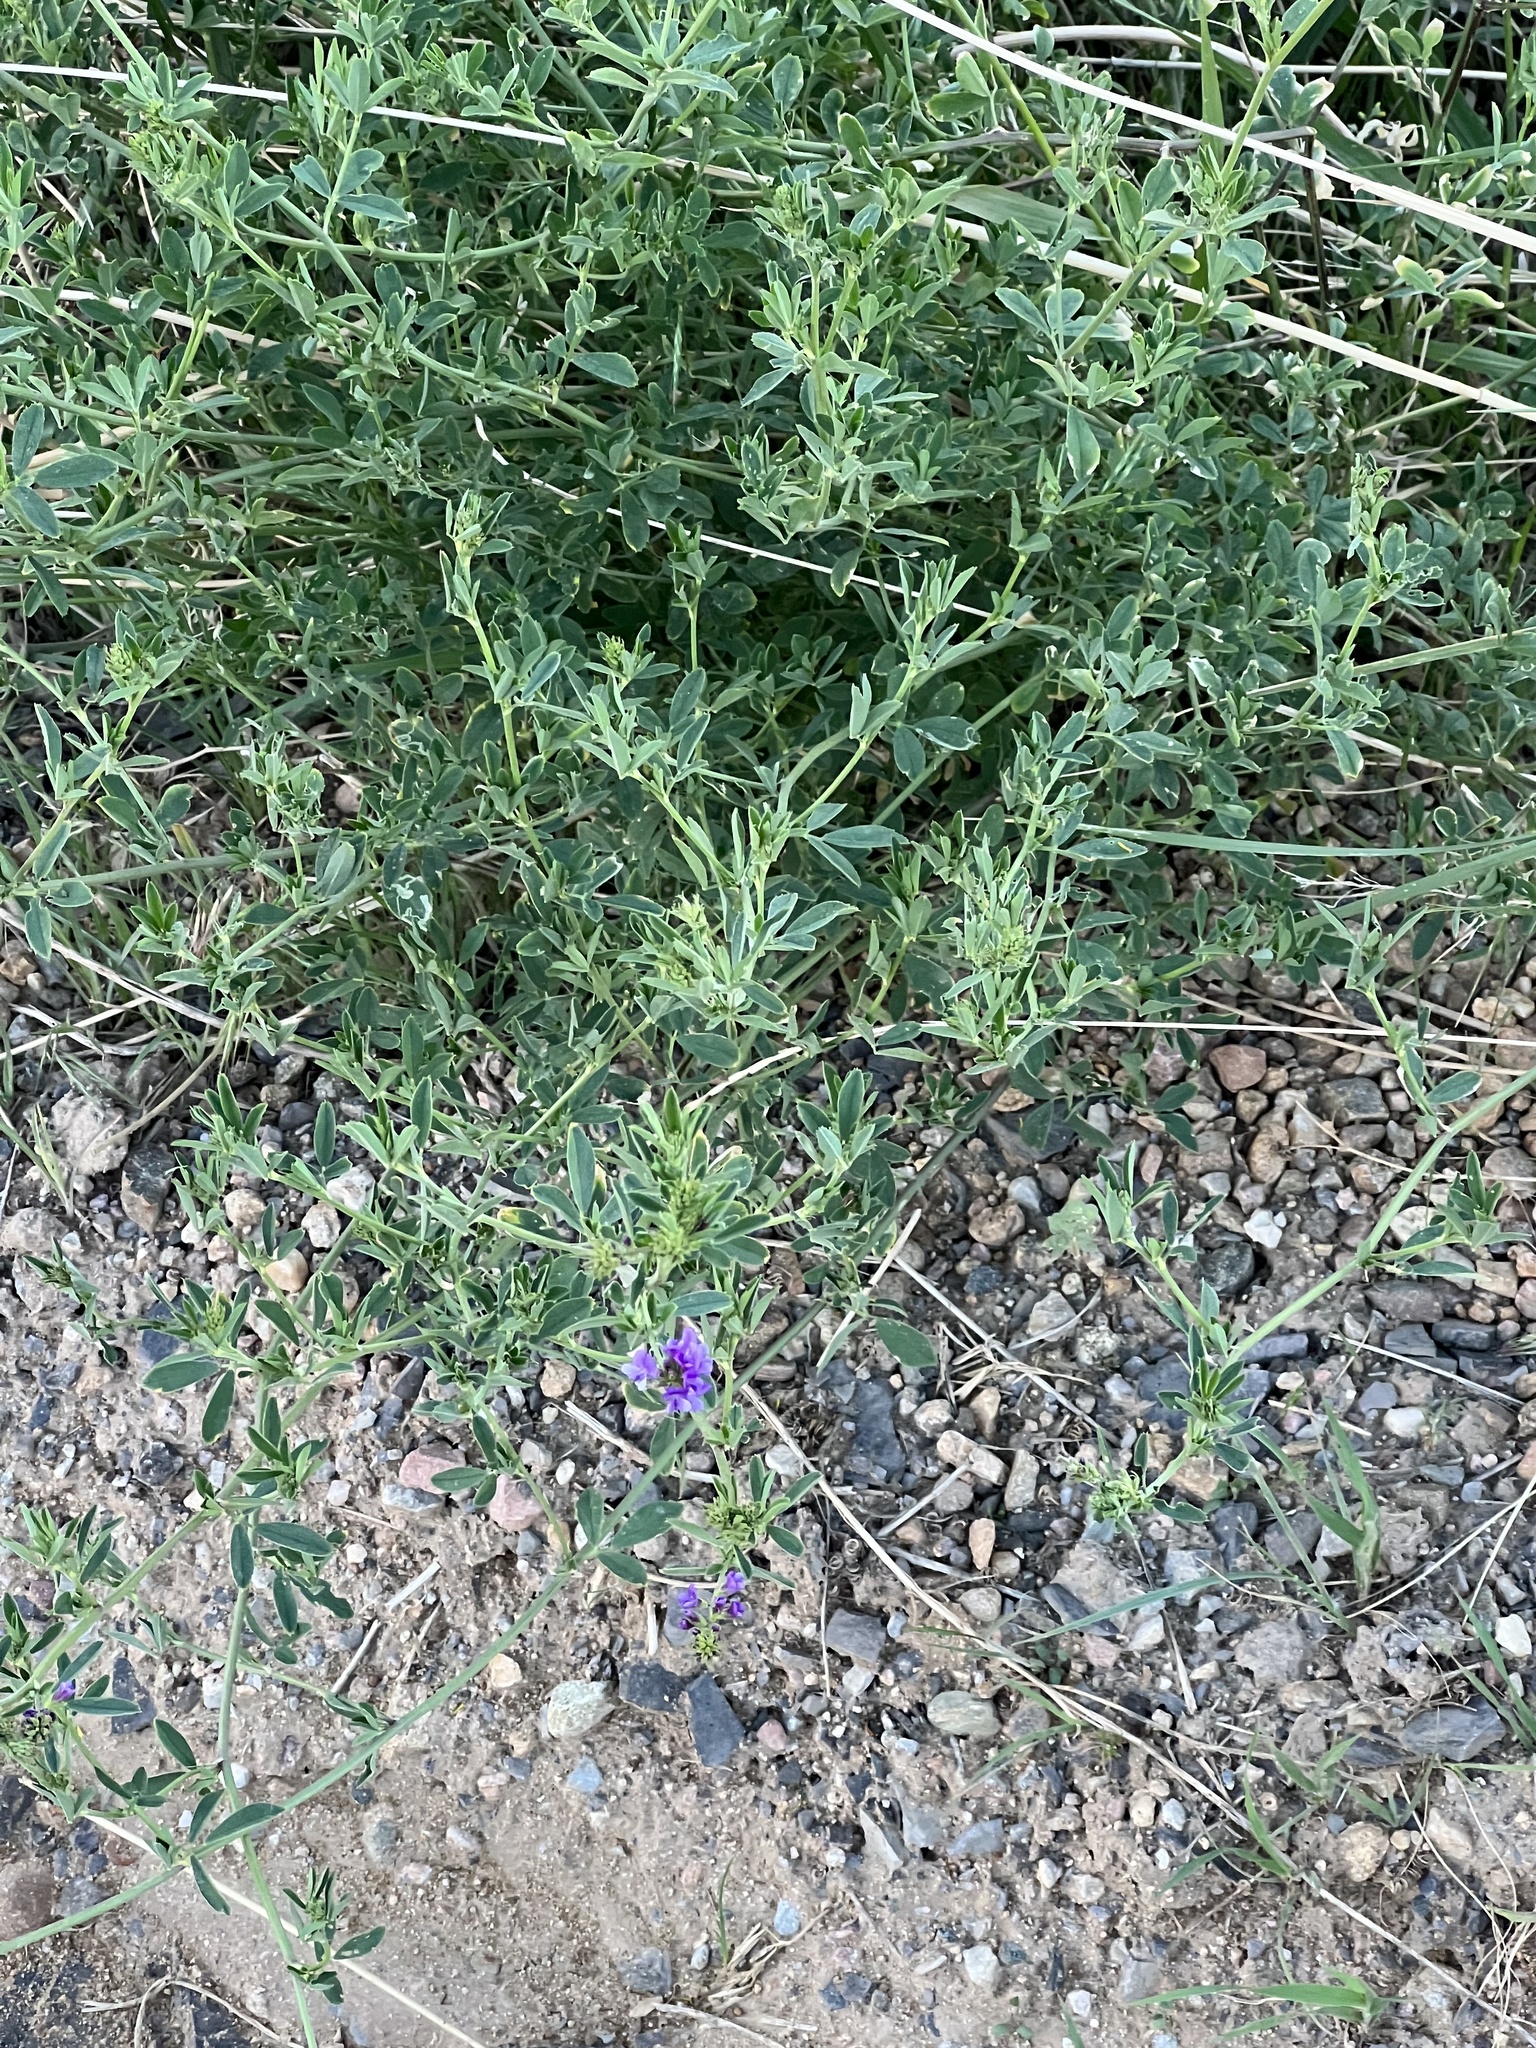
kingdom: Plantae
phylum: Tracheophyta
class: Magnoliopsida
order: Fabales
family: Fabaceae
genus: Medicago
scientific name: Medicago sativa
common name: Alfalfa
